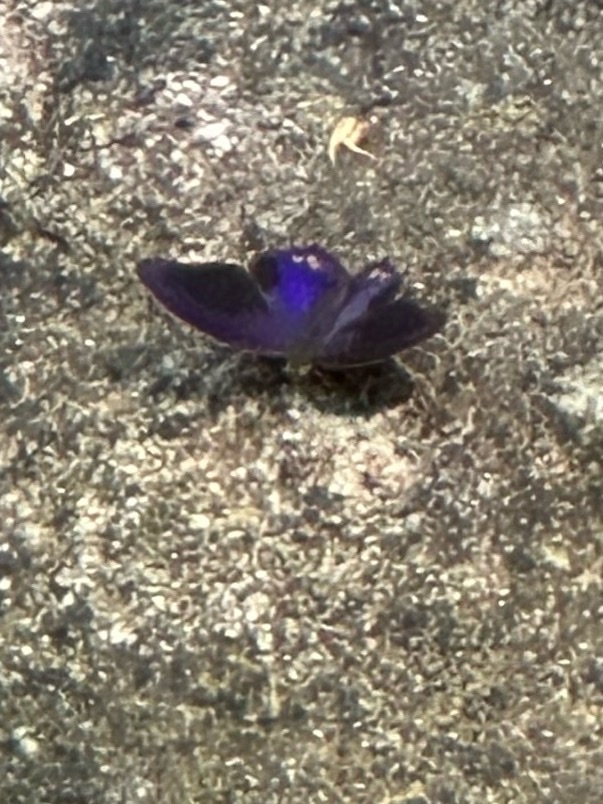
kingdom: Animalia
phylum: Arthropoda
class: Insecta
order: Lepidoptera
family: Nymphalidae
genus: Terinos
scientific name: Terinos terpander
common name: Royal assyrian
